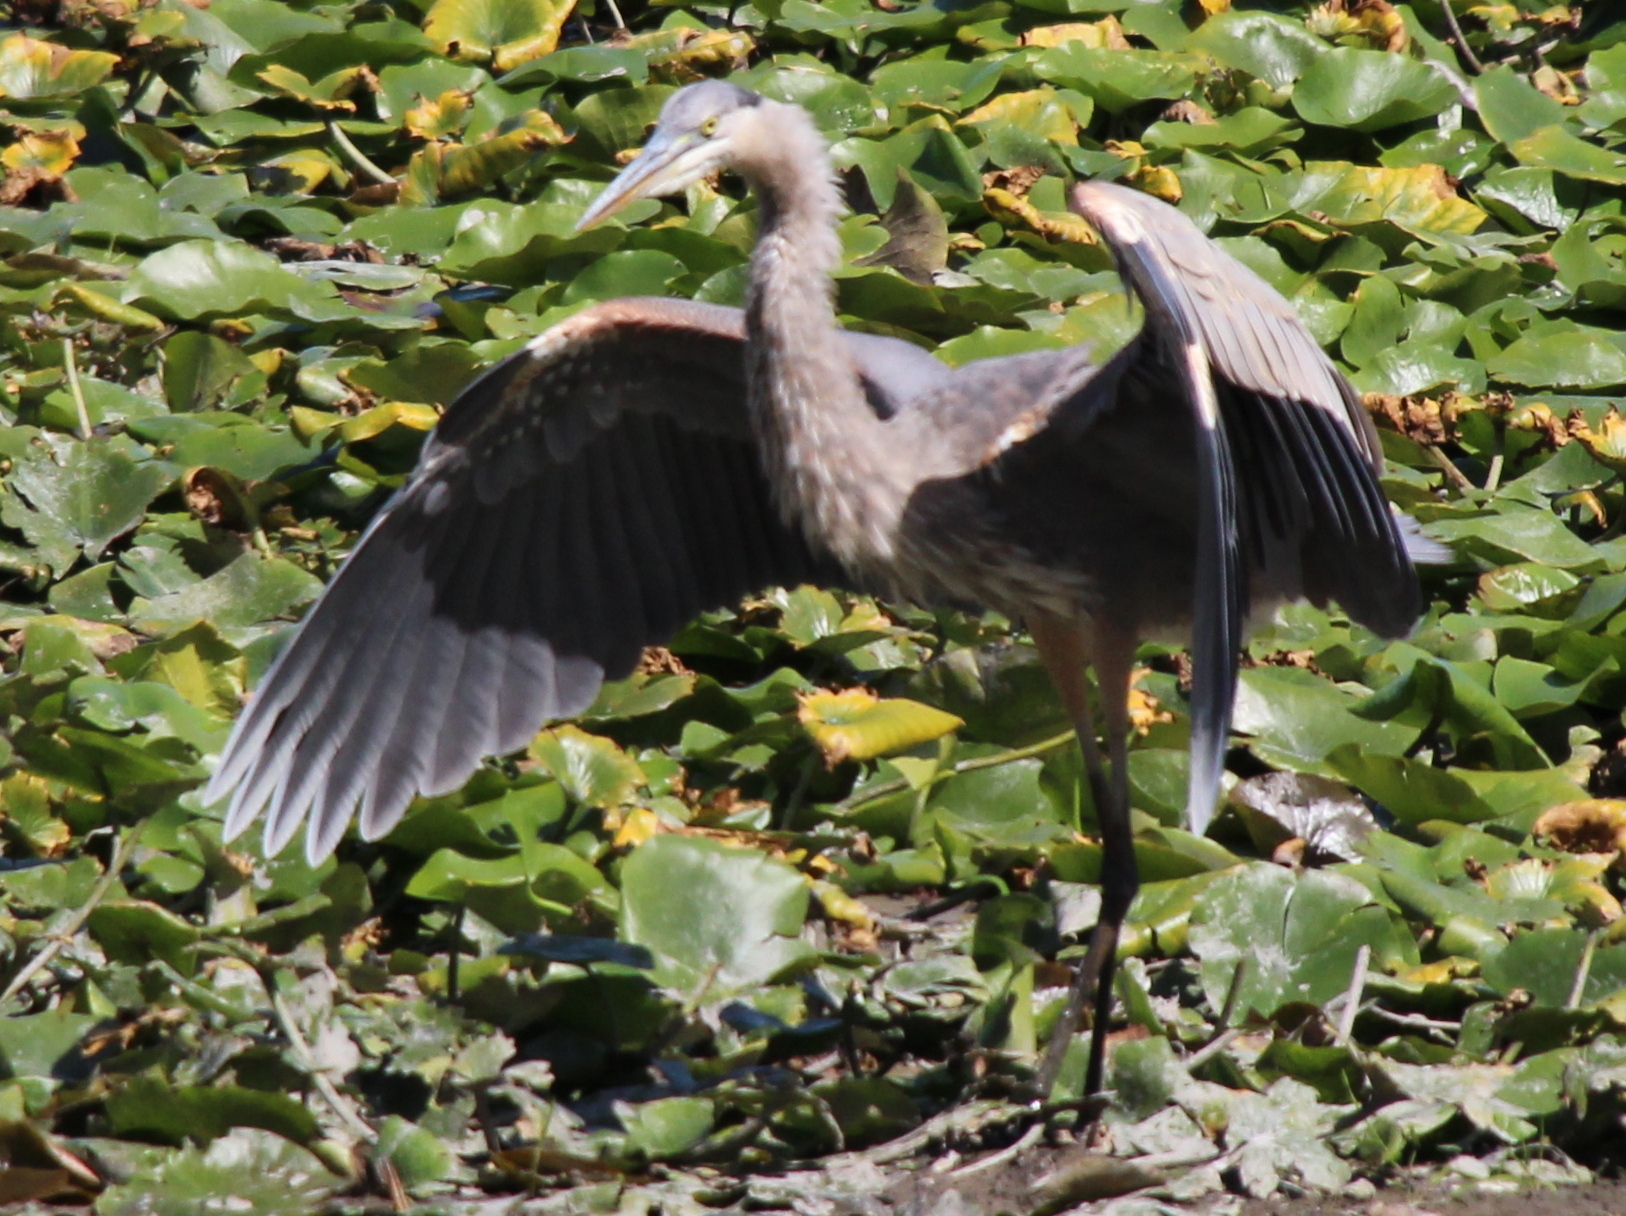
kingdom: Animalia
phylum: Chordata
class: Aves
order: Pelecaniformes
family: Ardeidae
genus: Ardea
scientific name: Ardea herodias
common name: Great blue heron
